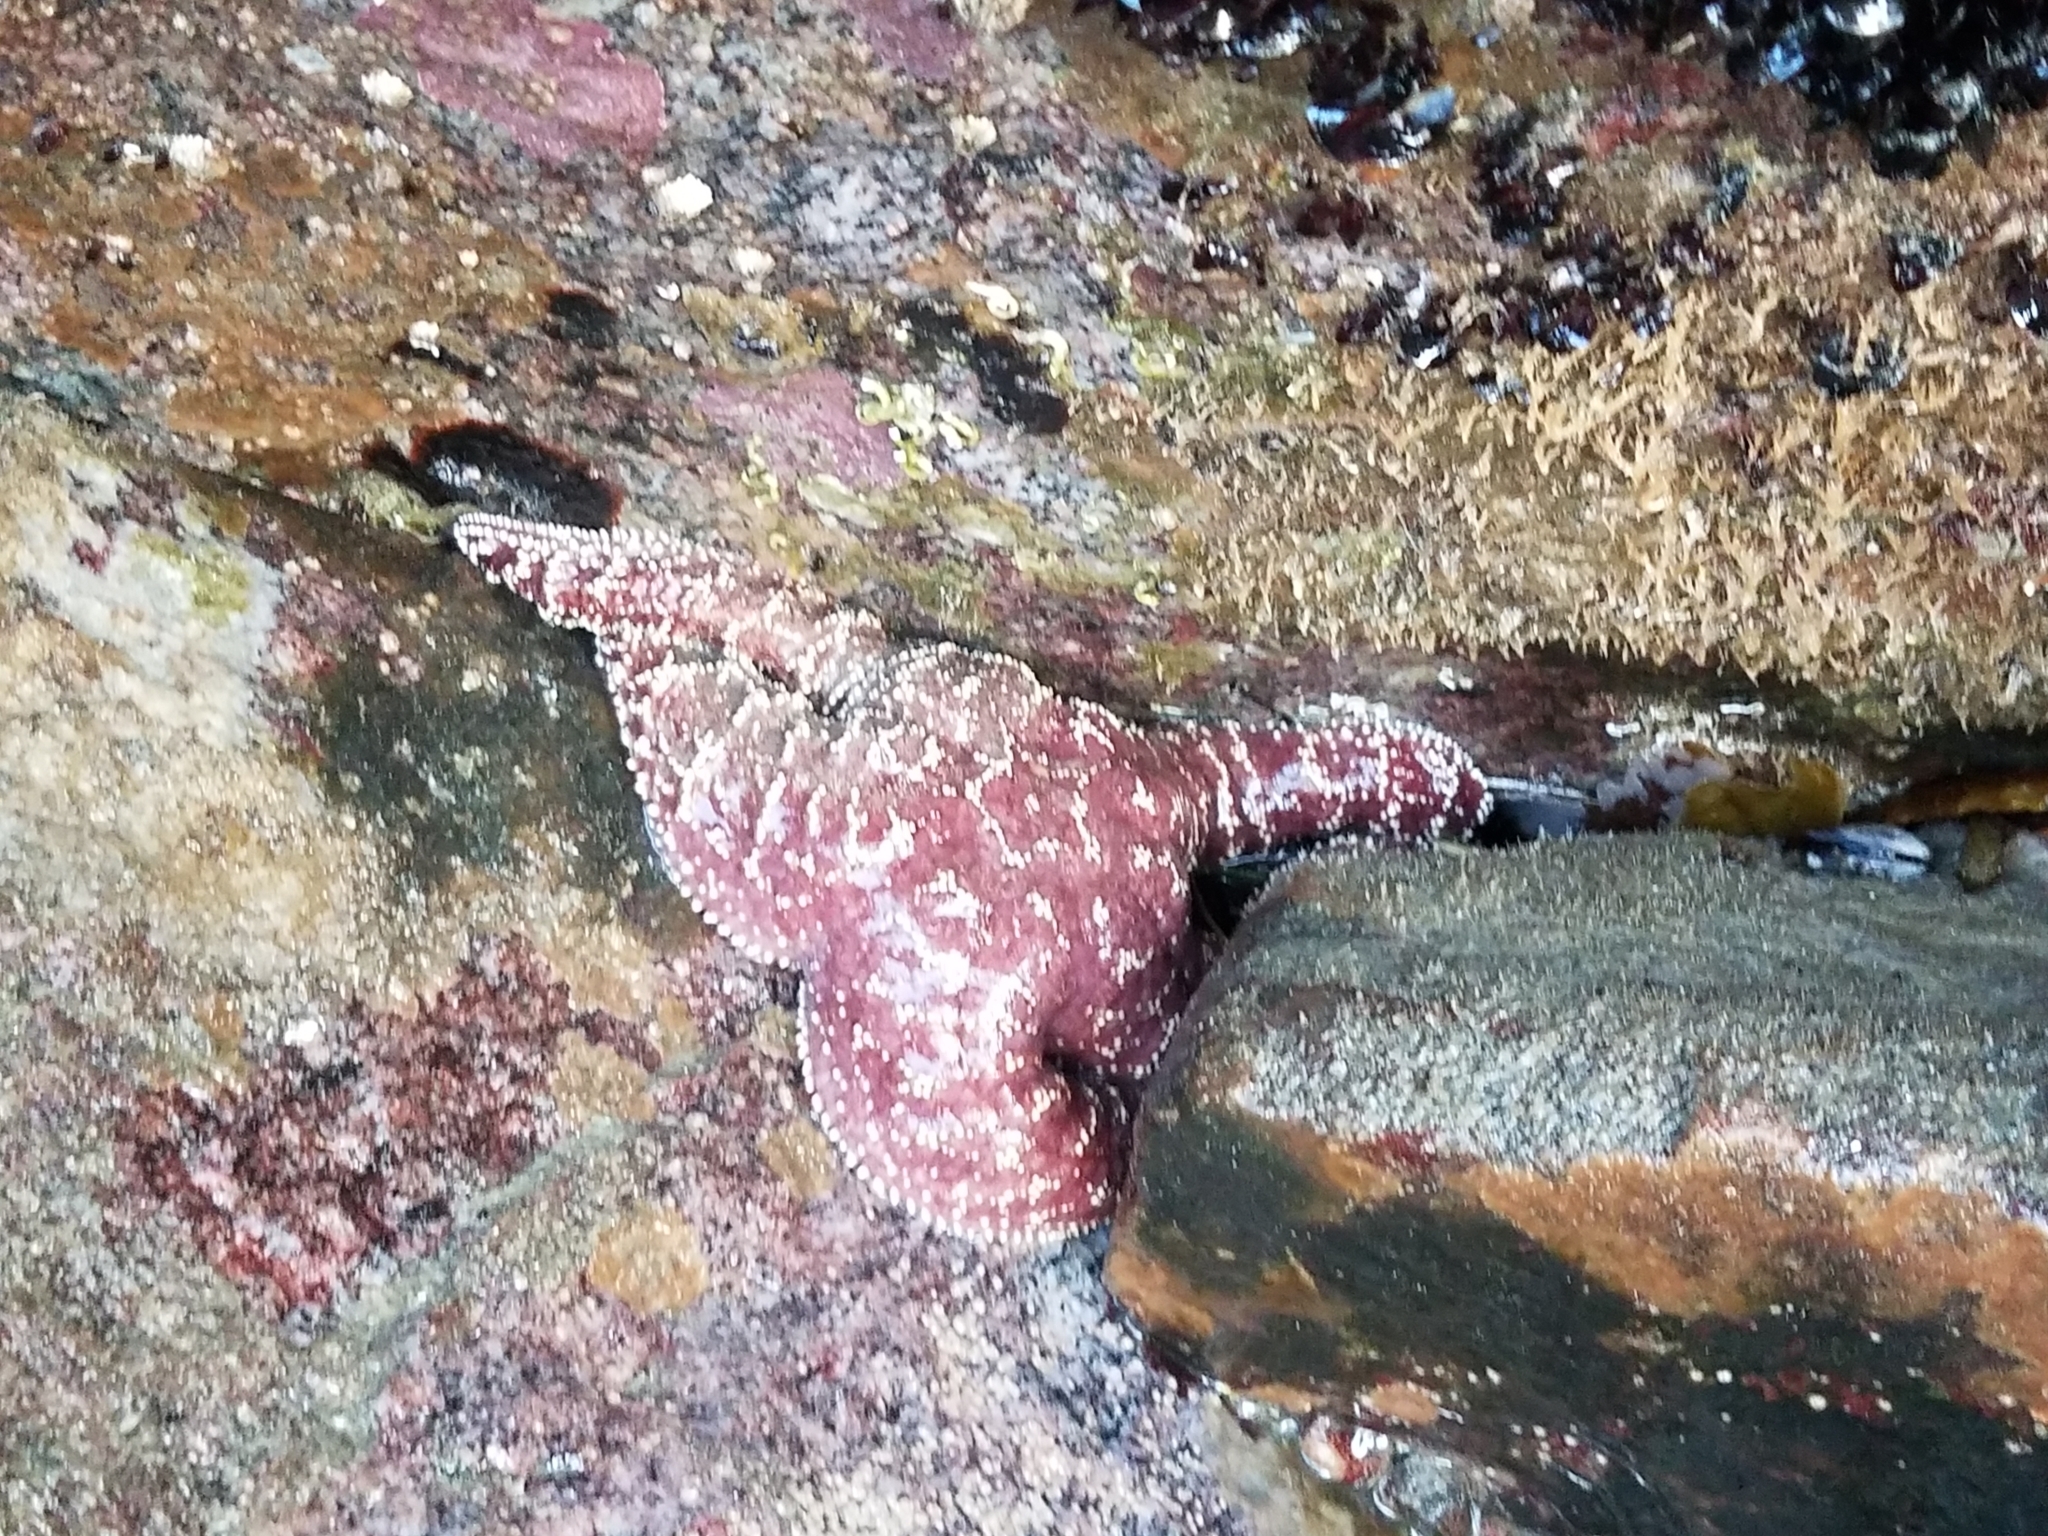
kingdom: Animalia
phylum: Echinodermata
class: Asteroidea
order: Forcipulatida
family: Asteriidae
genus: Pisaster
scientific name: Pisaster ochraceus
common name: Ochre stars
